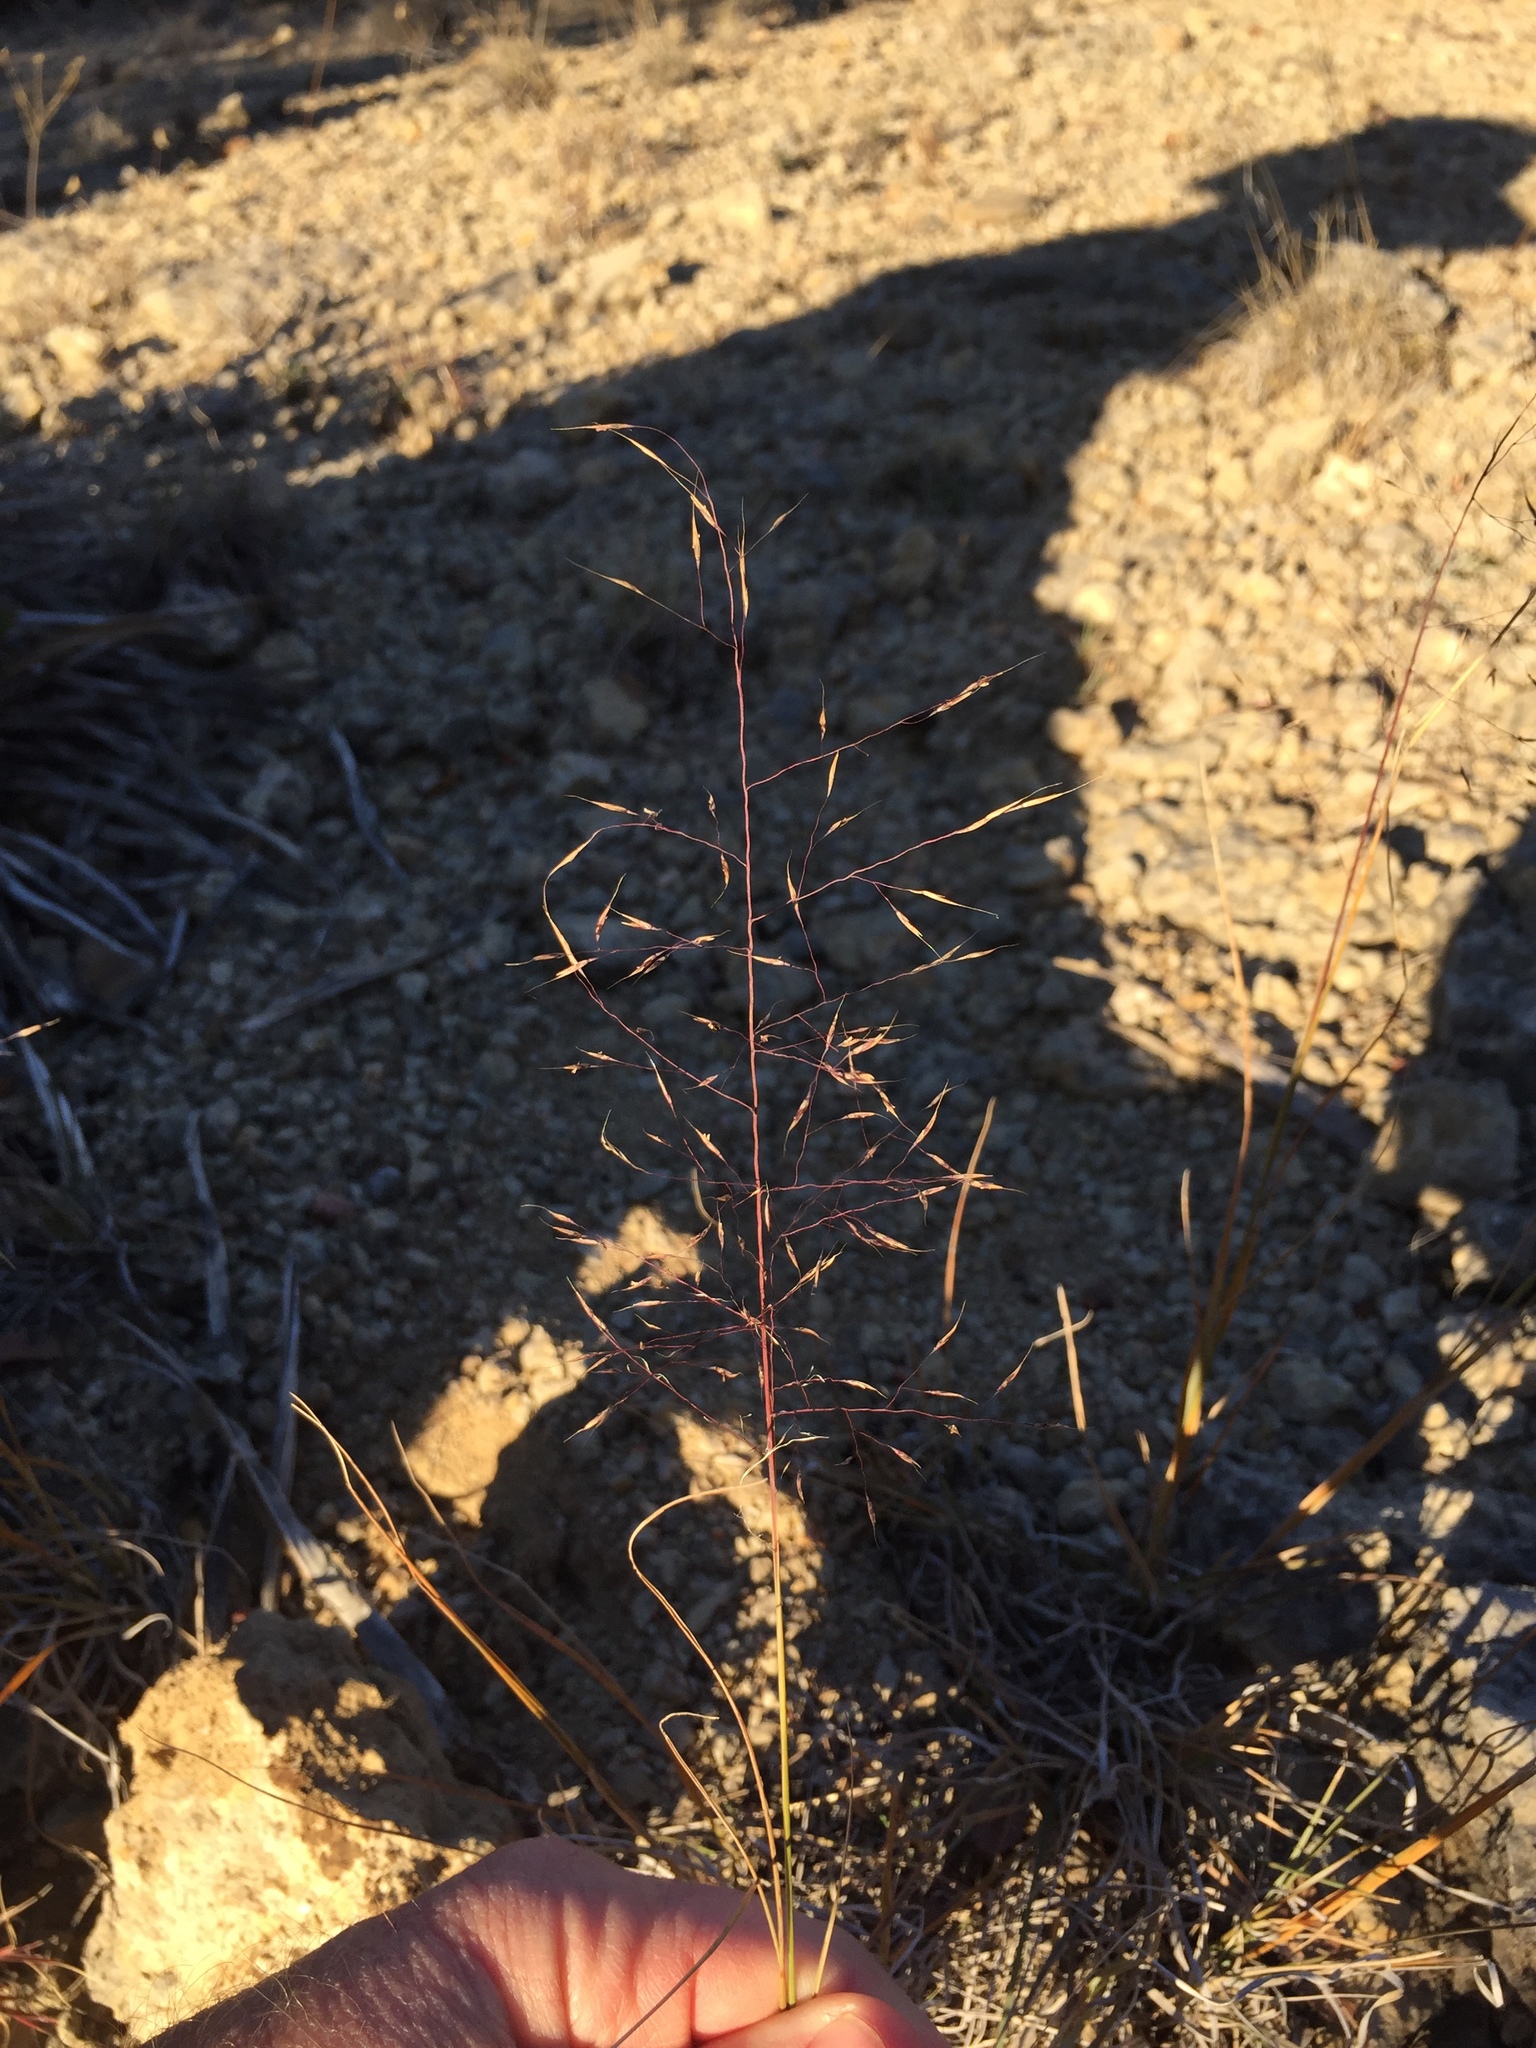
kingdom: Plantae
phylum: Tracheophyta
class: Liliopsida
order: Poales
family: Poaceae
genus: Muhlenbergia
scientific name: Muhlenbergia reverchonii
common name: Seep muhly
